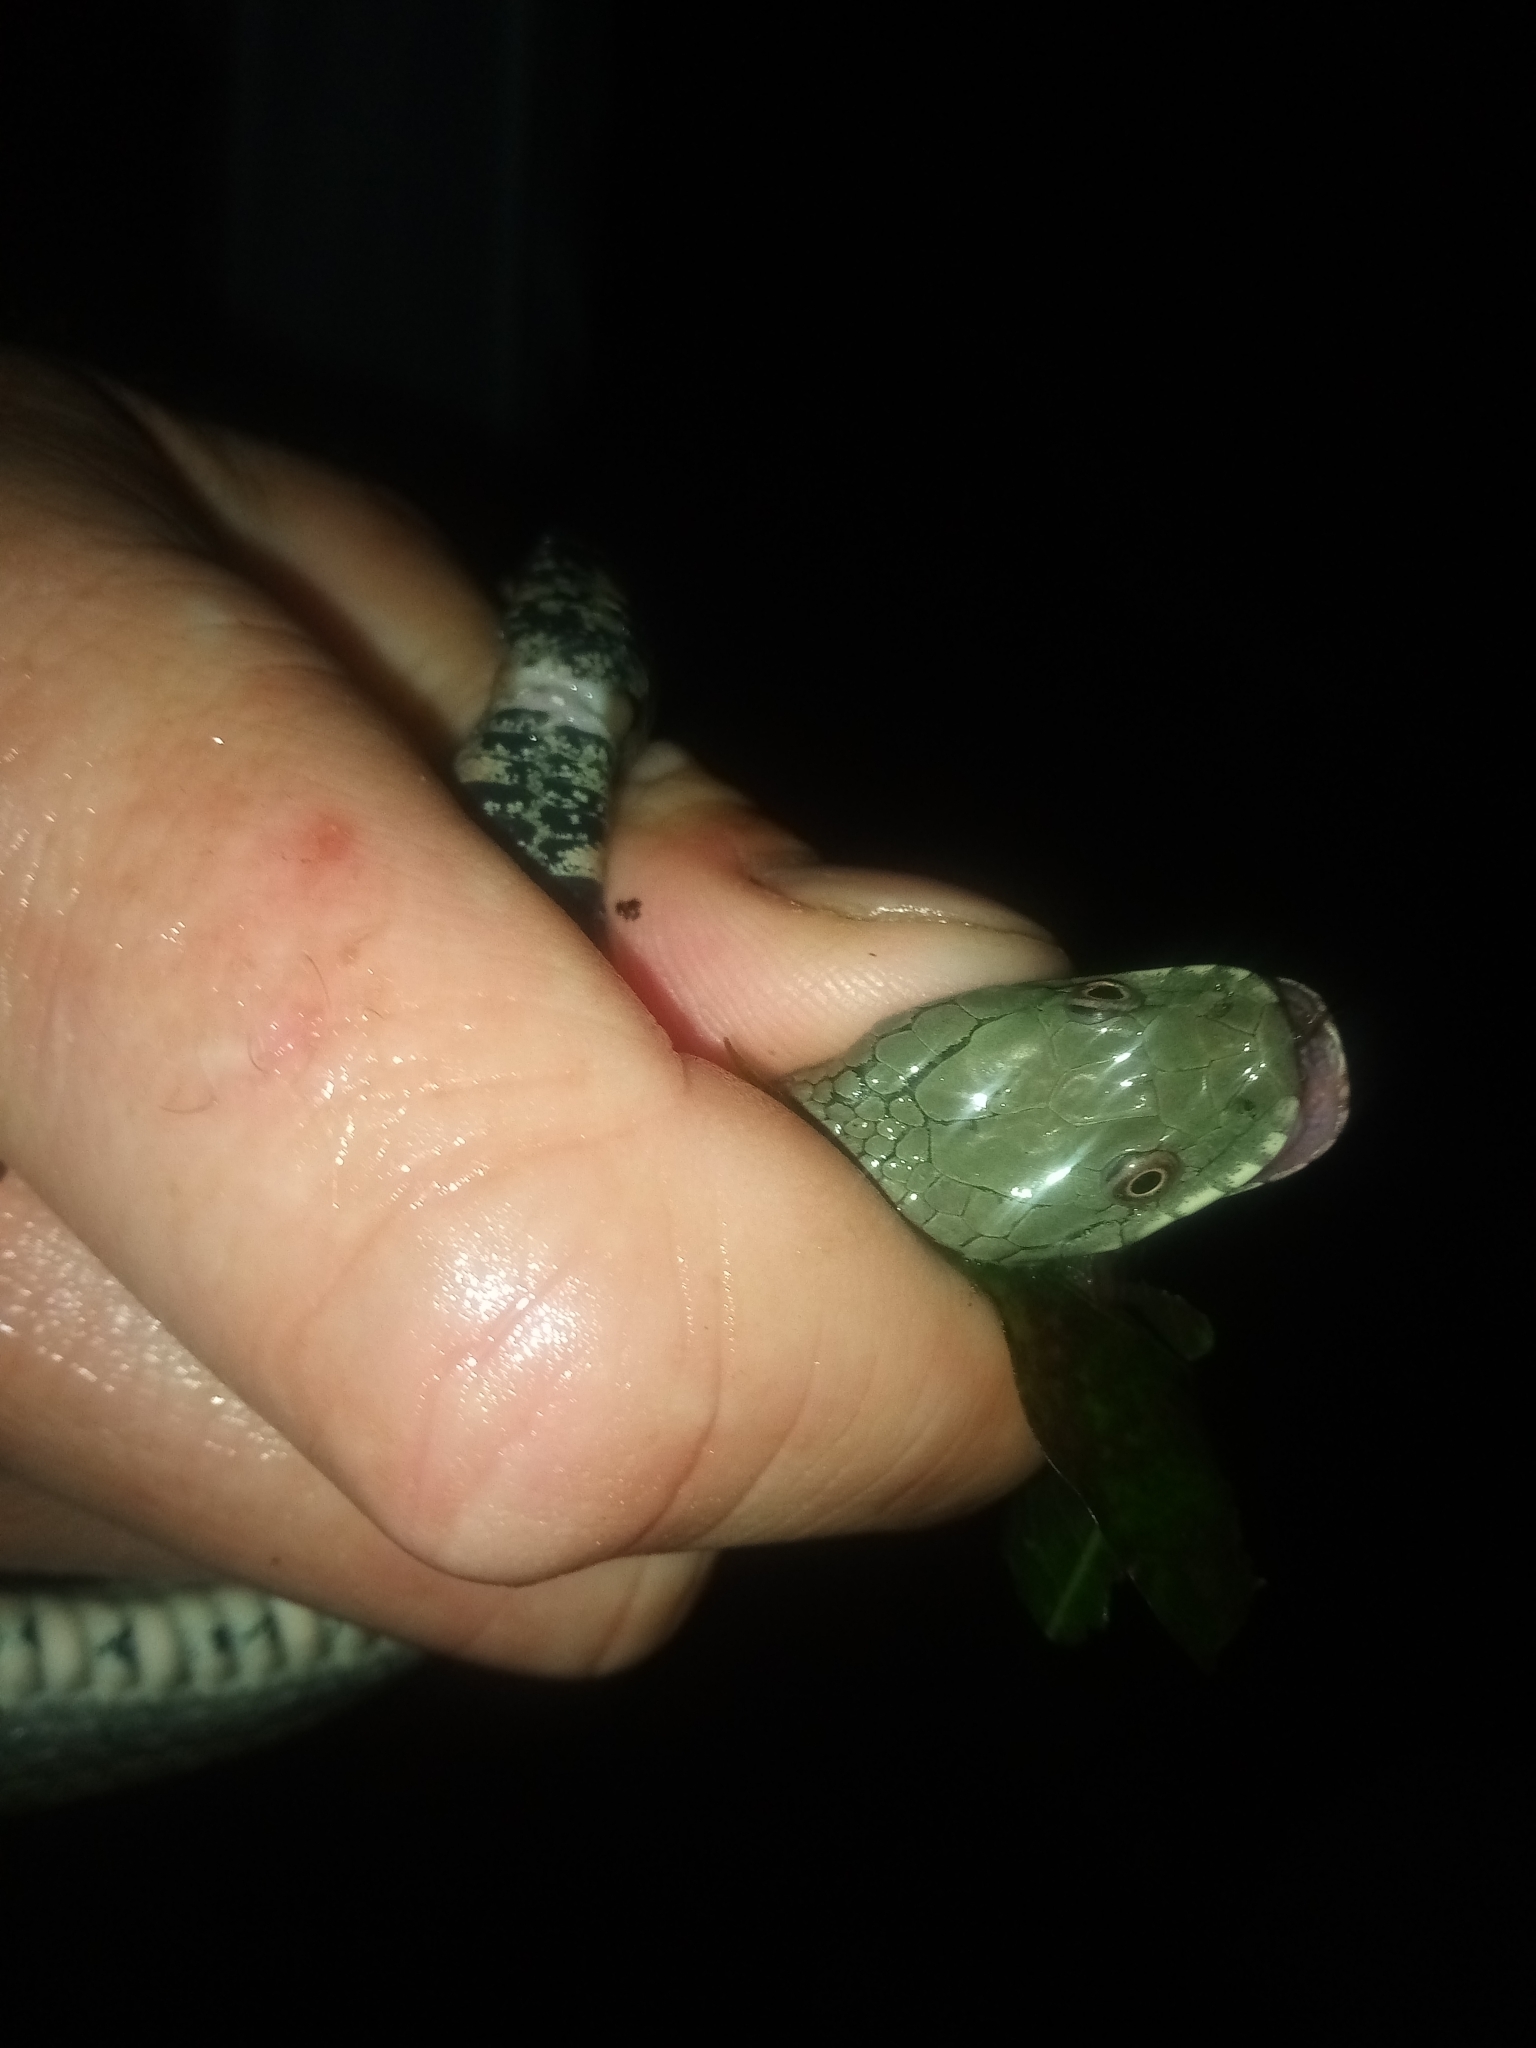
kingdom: Animalia
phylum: Chordata
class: Squamata
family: Colubridae
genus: Natrix
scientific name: Natrix tessellata
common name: Dice snake
